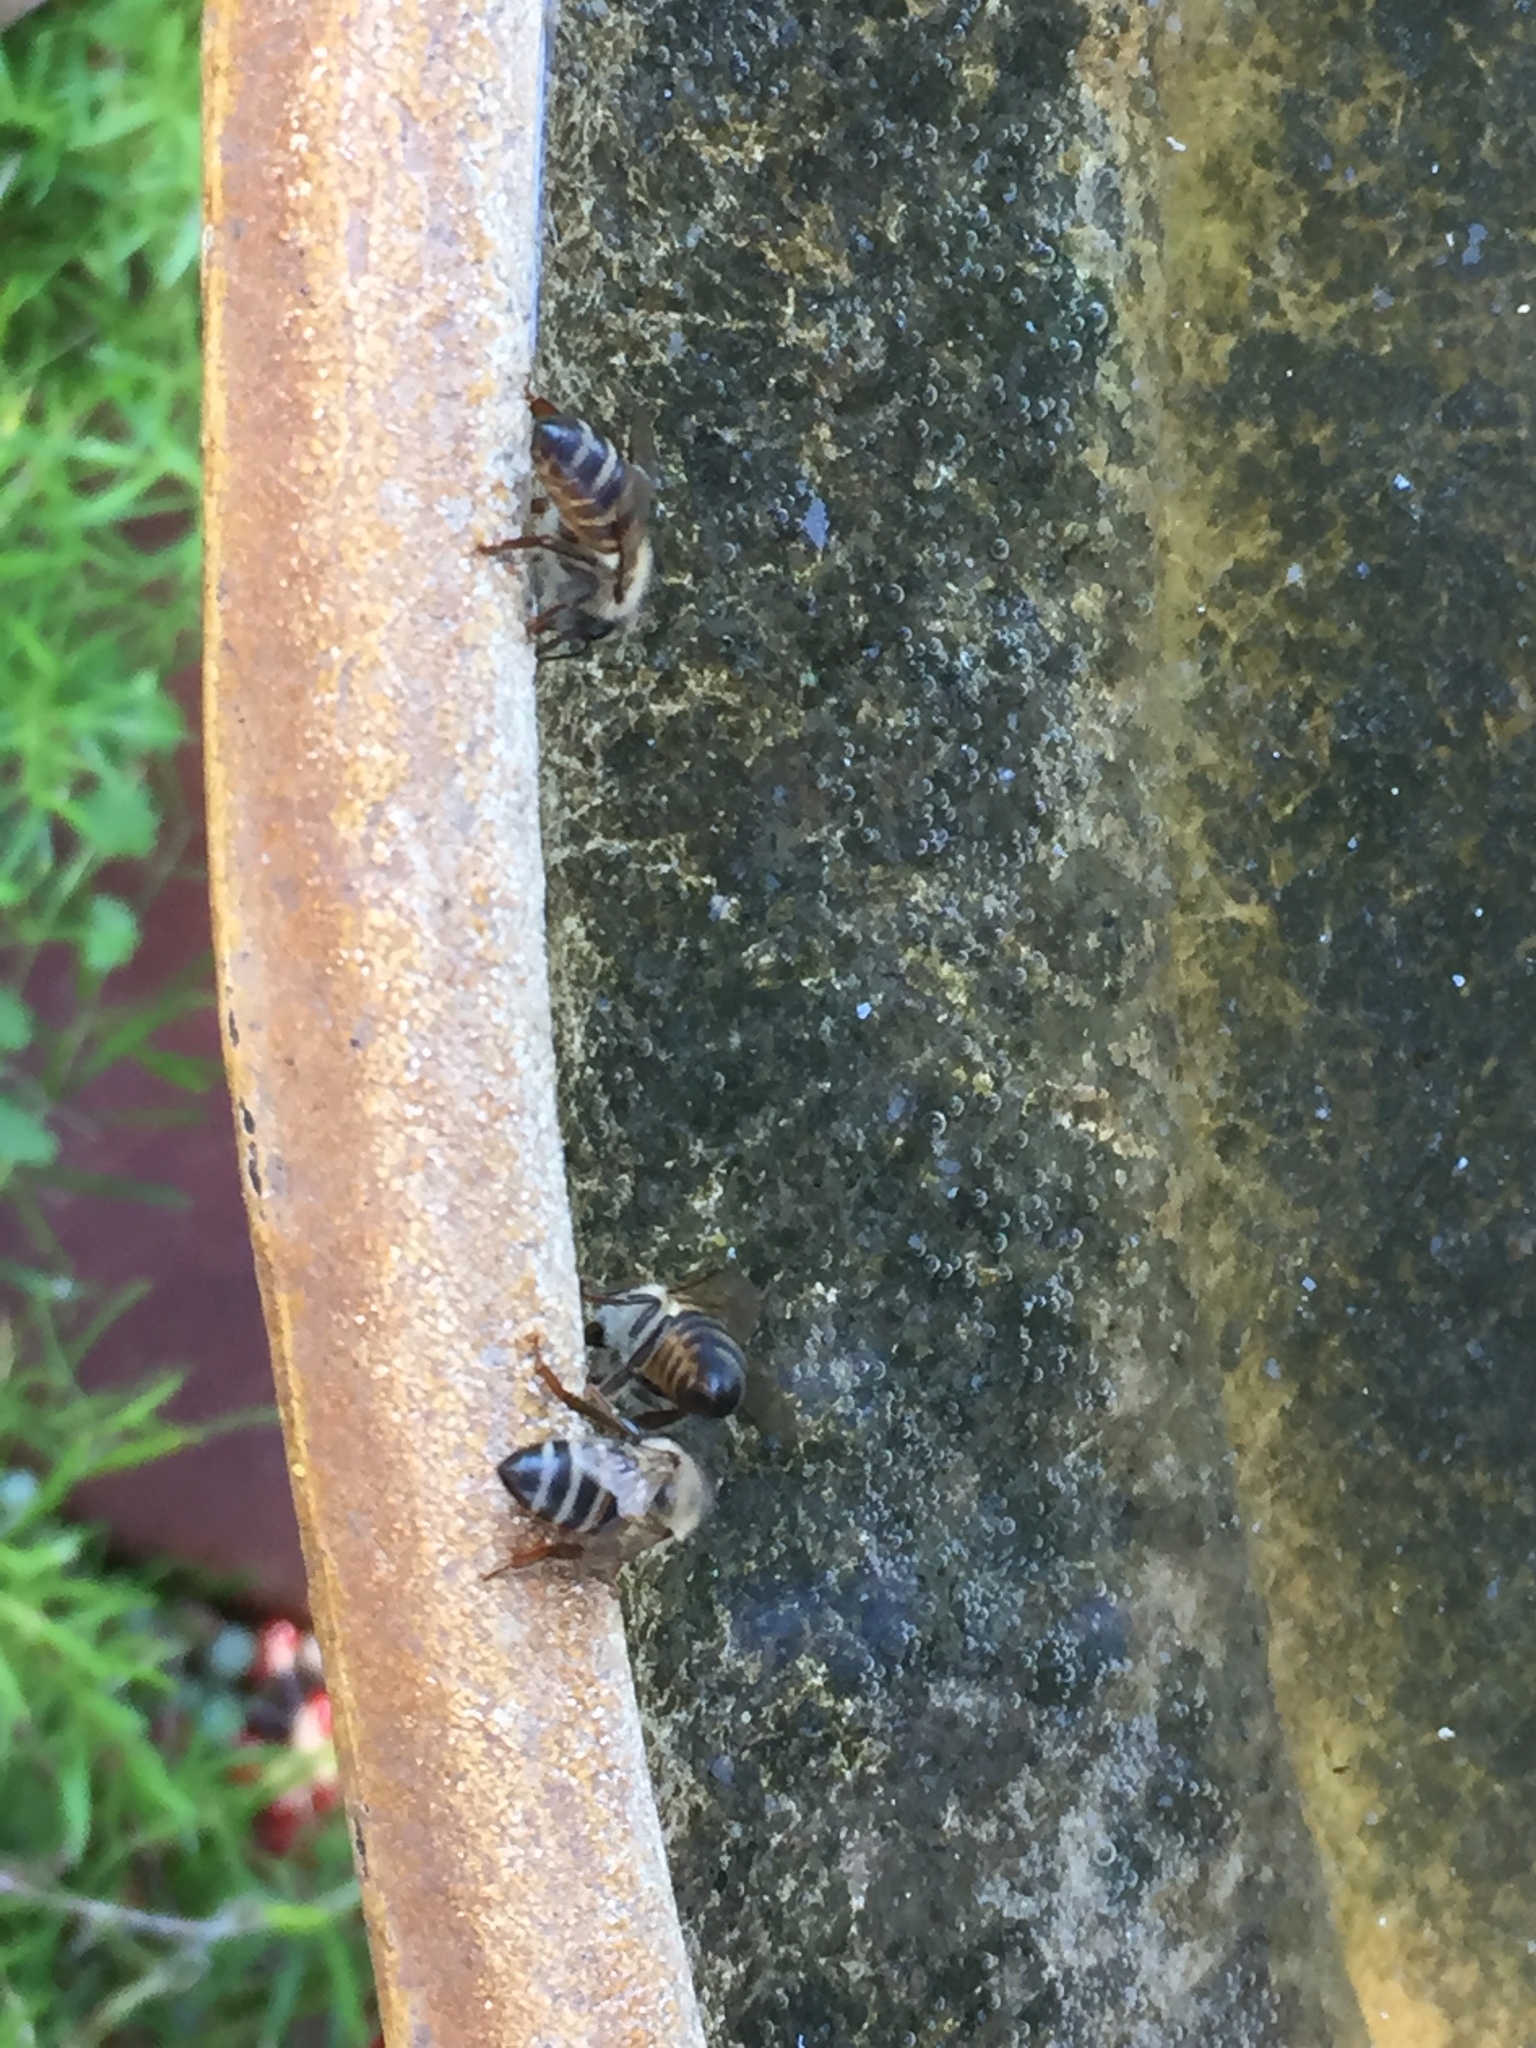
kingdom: Animalia
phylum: Arthropoda
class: Insecta
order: Hymenoptera
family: Apidae
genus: Apis
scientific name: Apis mellifera
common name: Honey bee
